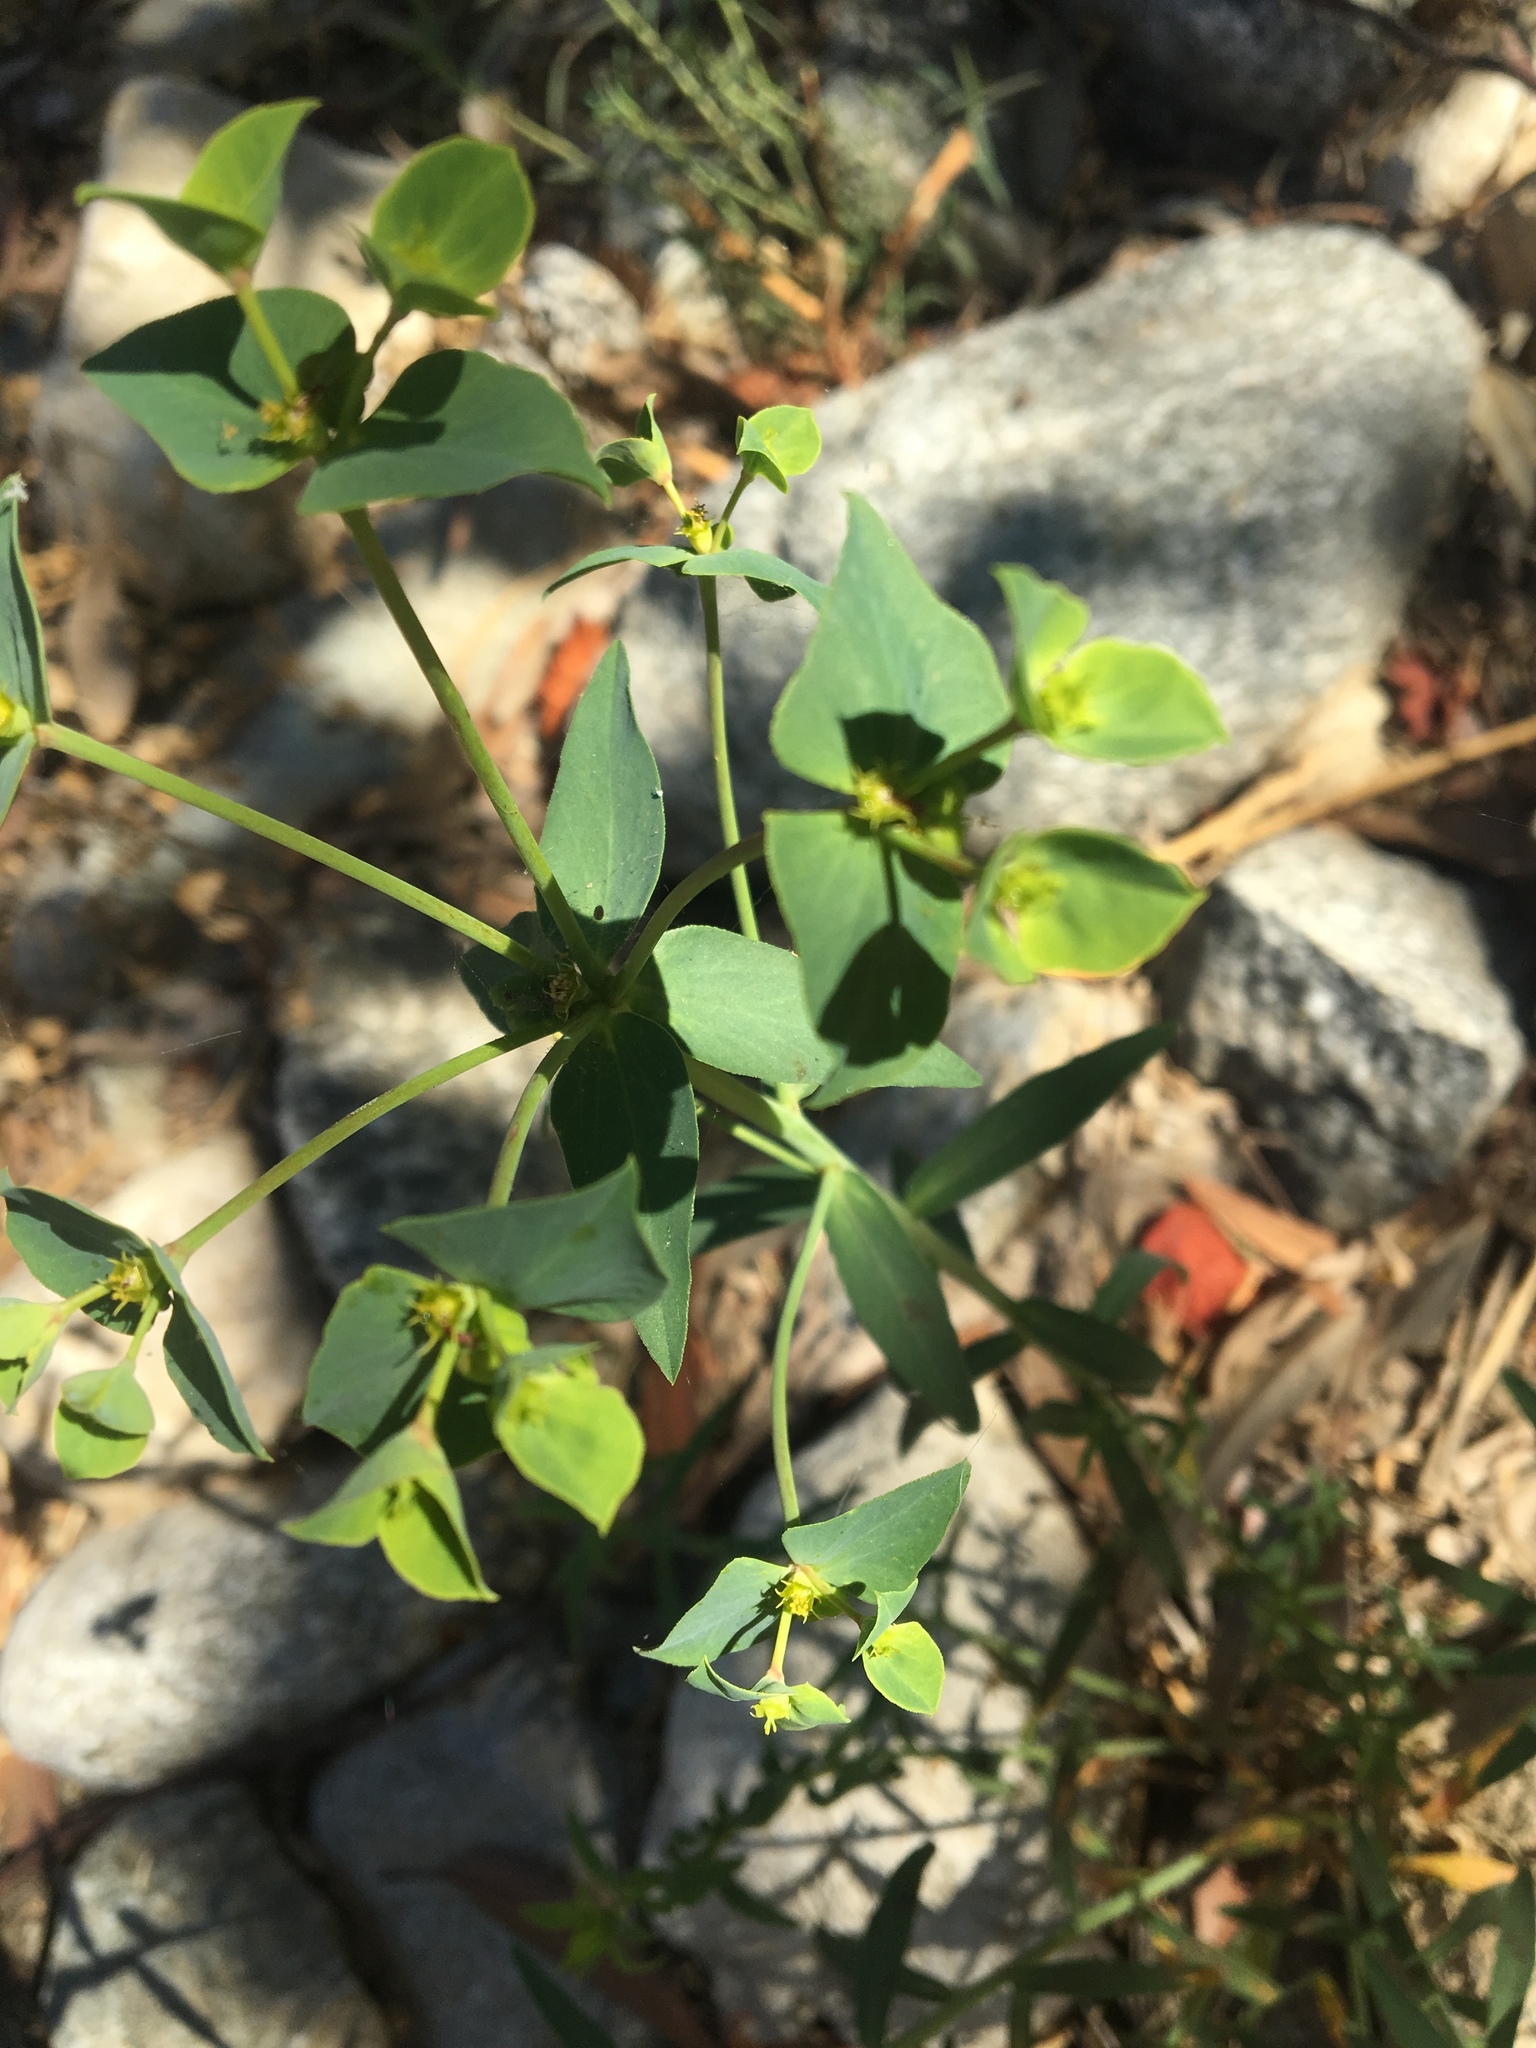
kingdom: Plantae
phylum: Tracheophyta
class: Magnoliopsida
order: Malpighiales
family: Euphorbiaceae
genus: Euphorbia
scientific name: Euphorbia terracina
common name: Geraldton carnation weed
